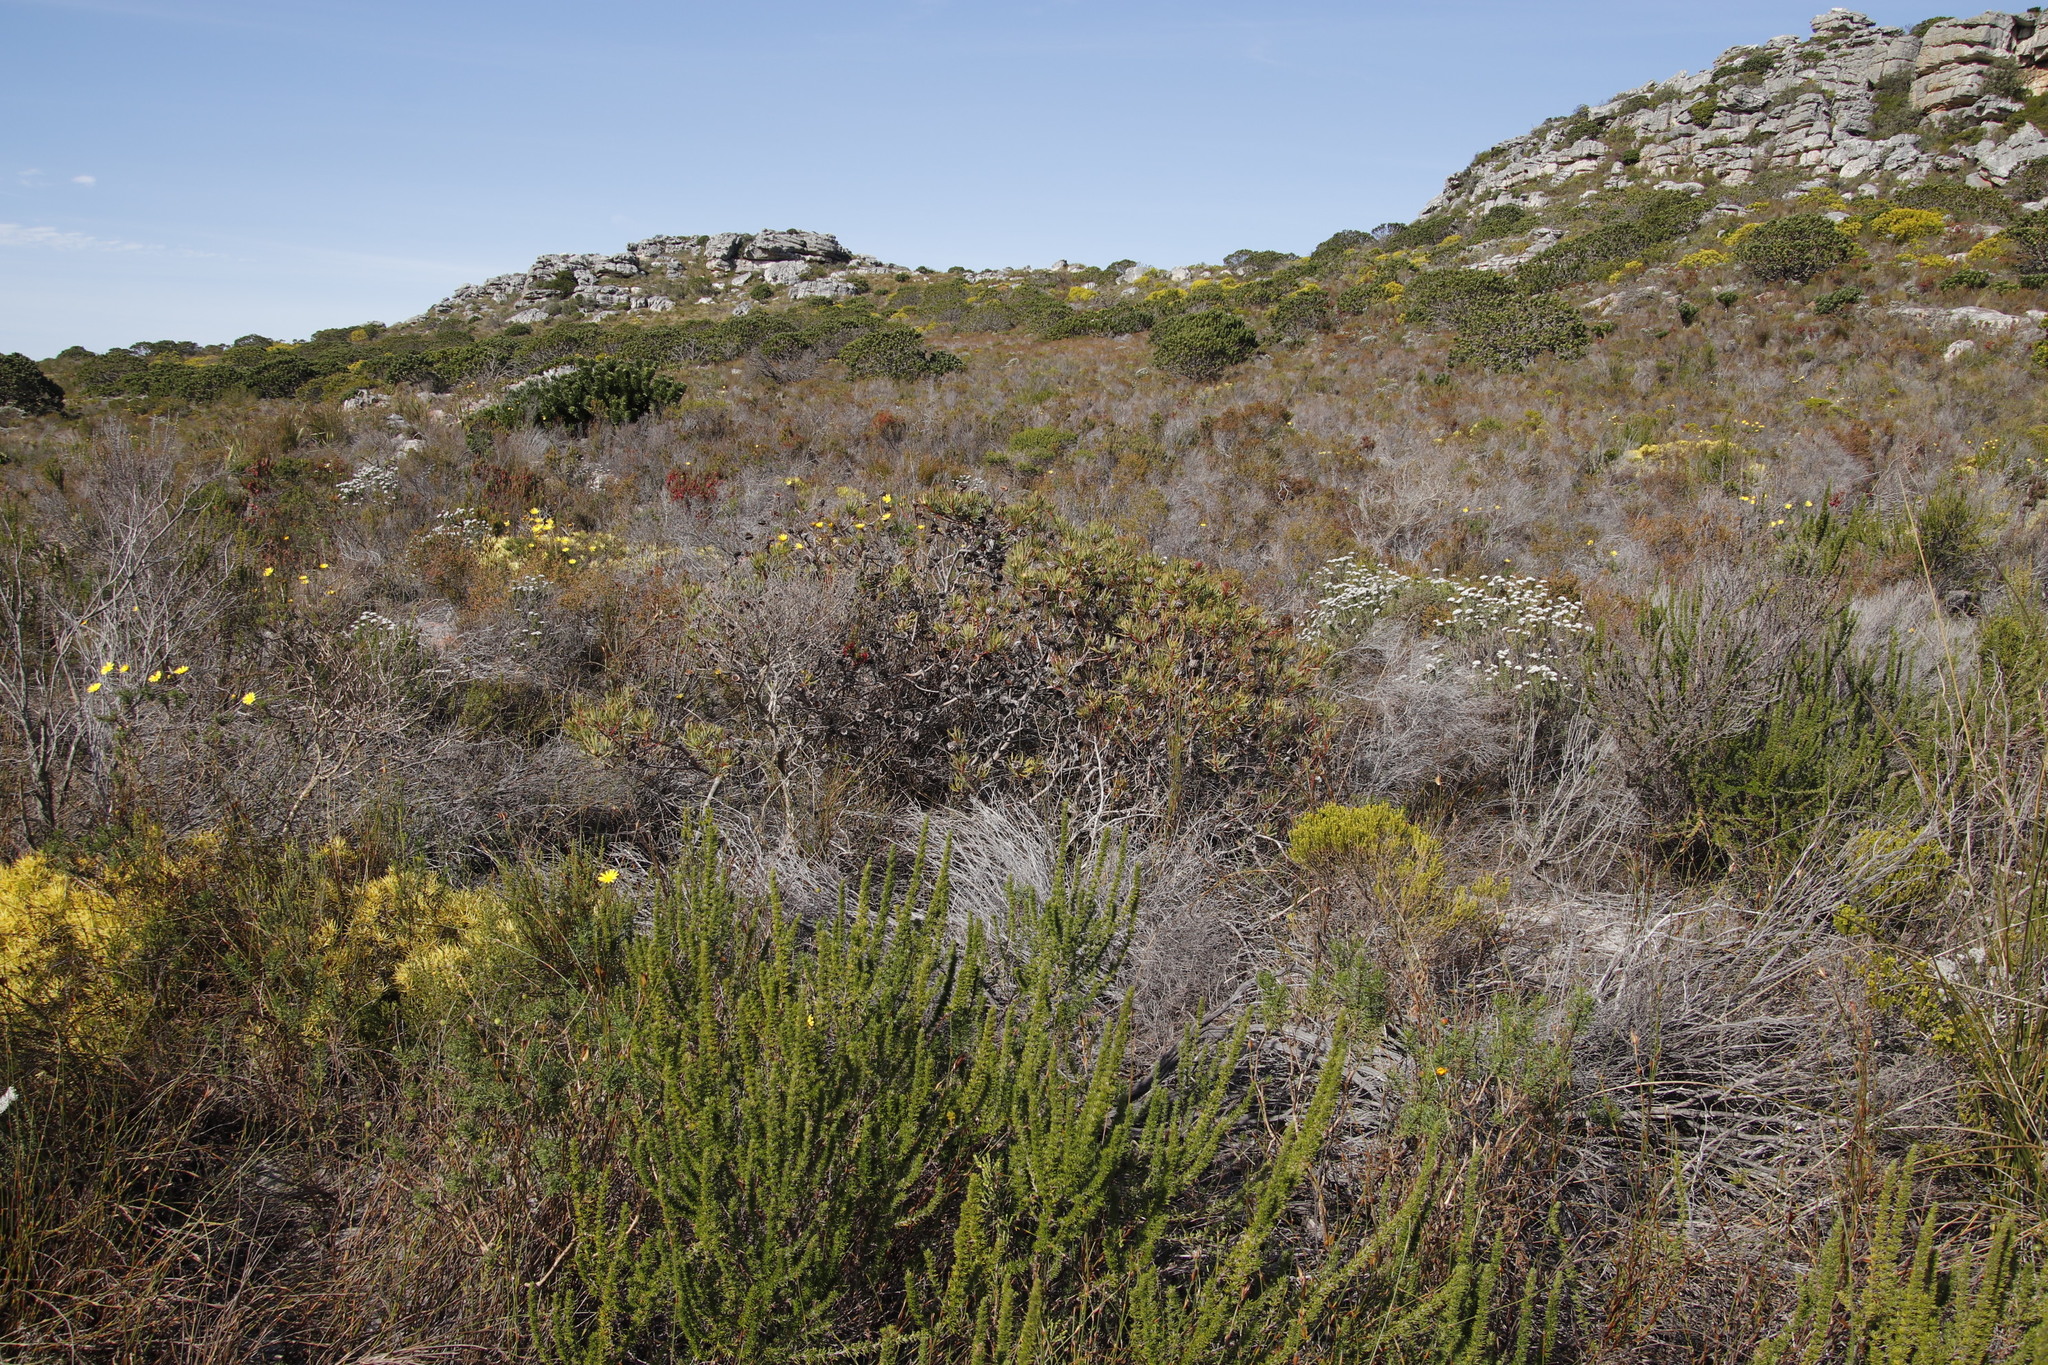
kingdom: Plantae
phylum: Tracheophyta
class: Magnoliopsida
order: Proteales
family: Proteaceae
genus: Protea
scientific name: Protea scolymocephala
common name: Thistle sugarbush
